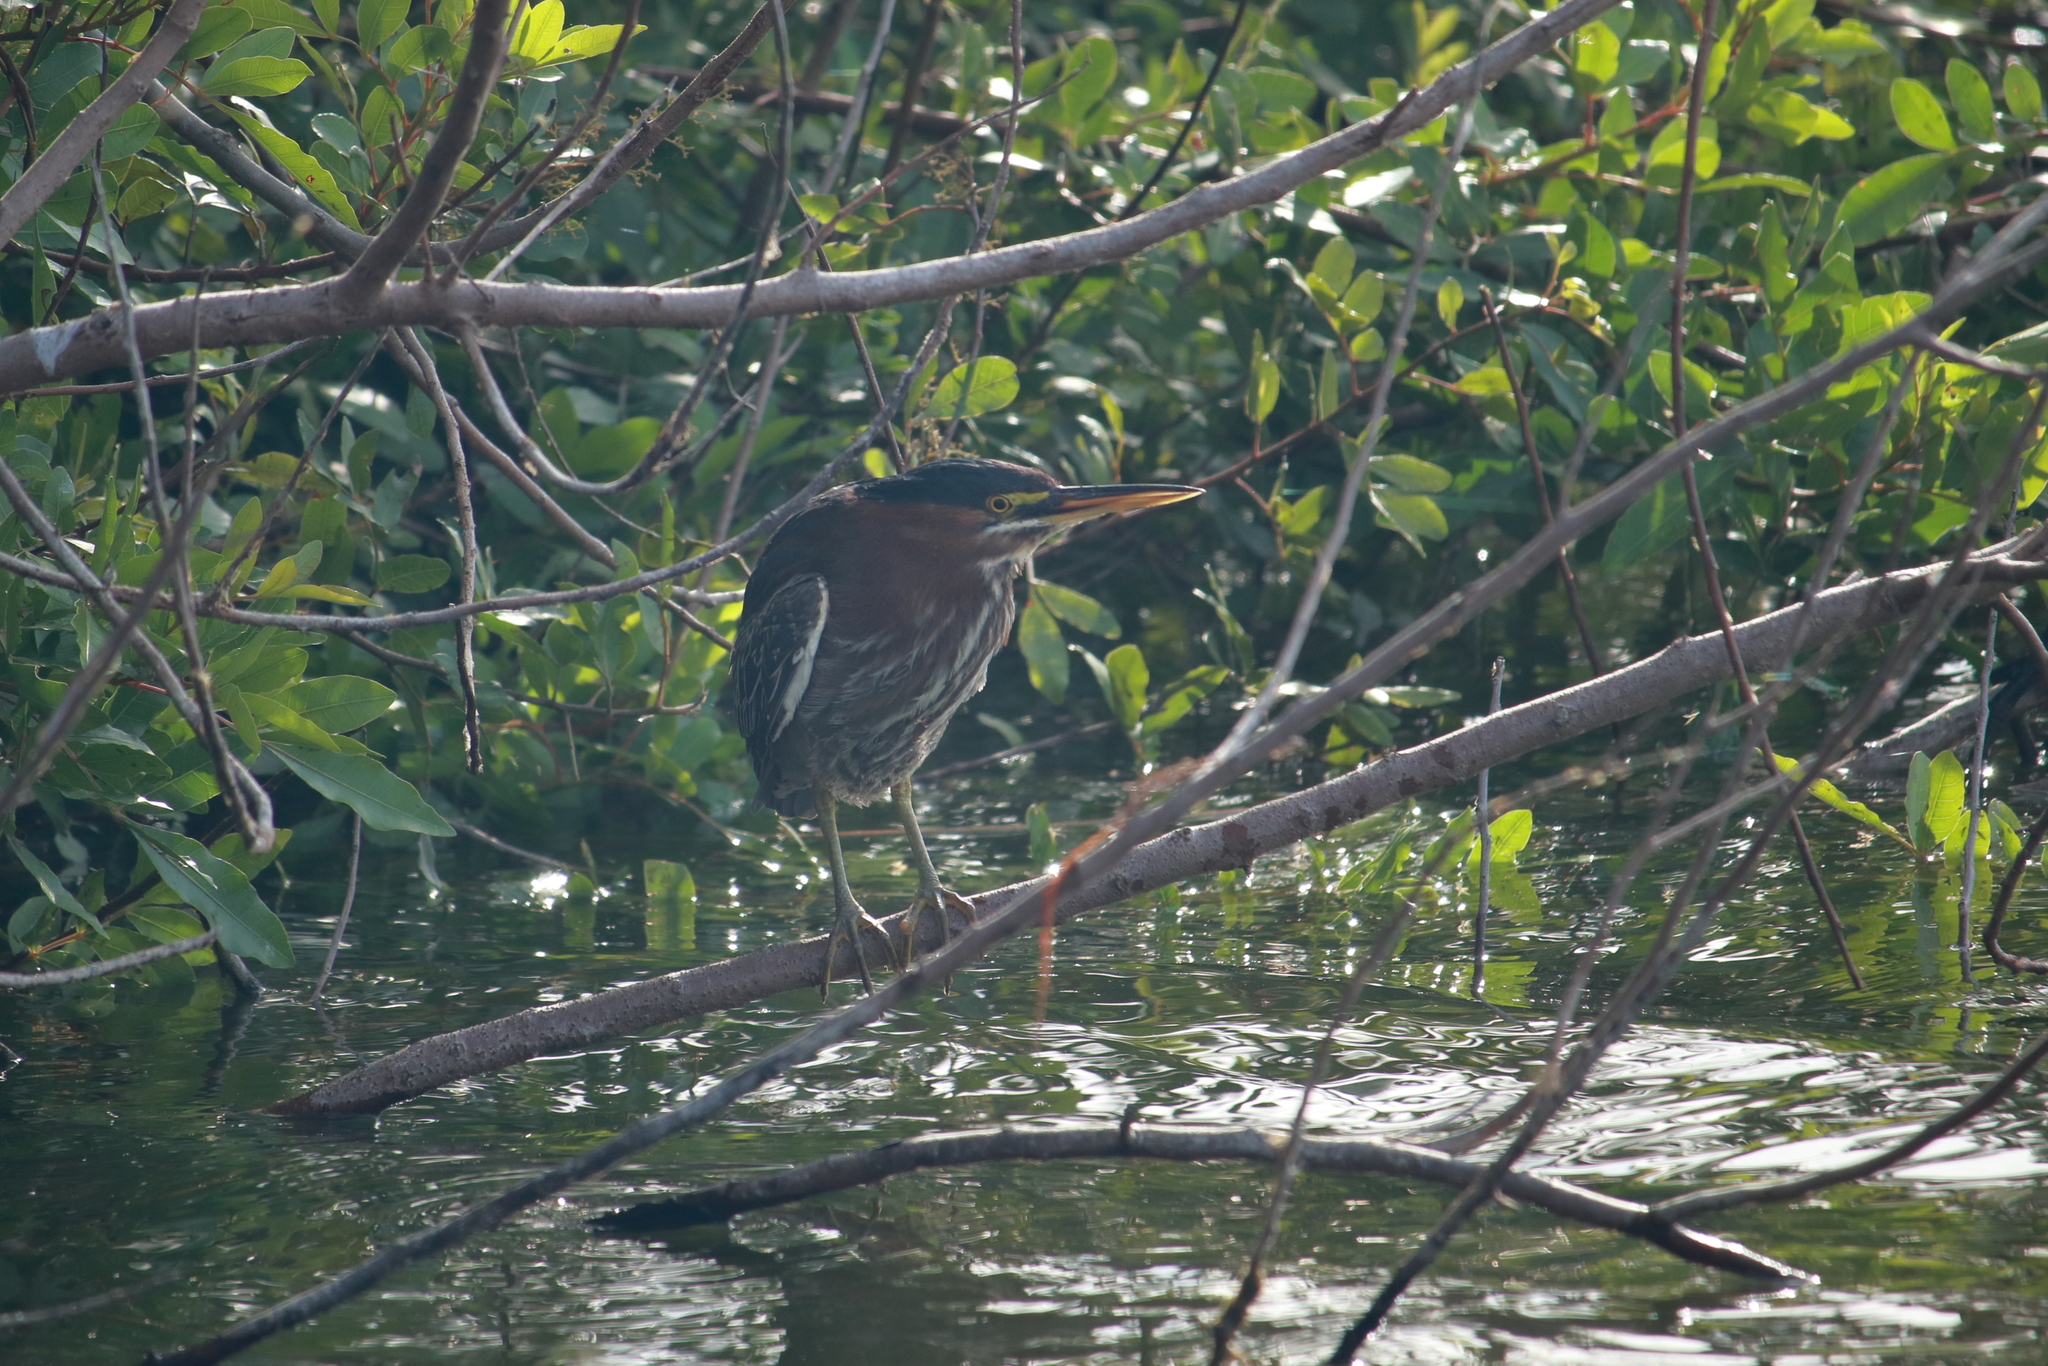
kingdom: Animalia
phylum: Chordata
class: Aves
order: Pelecaniformes
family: Ardeidae
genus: Butorides
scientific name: Butorides virescens
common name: Green heron
